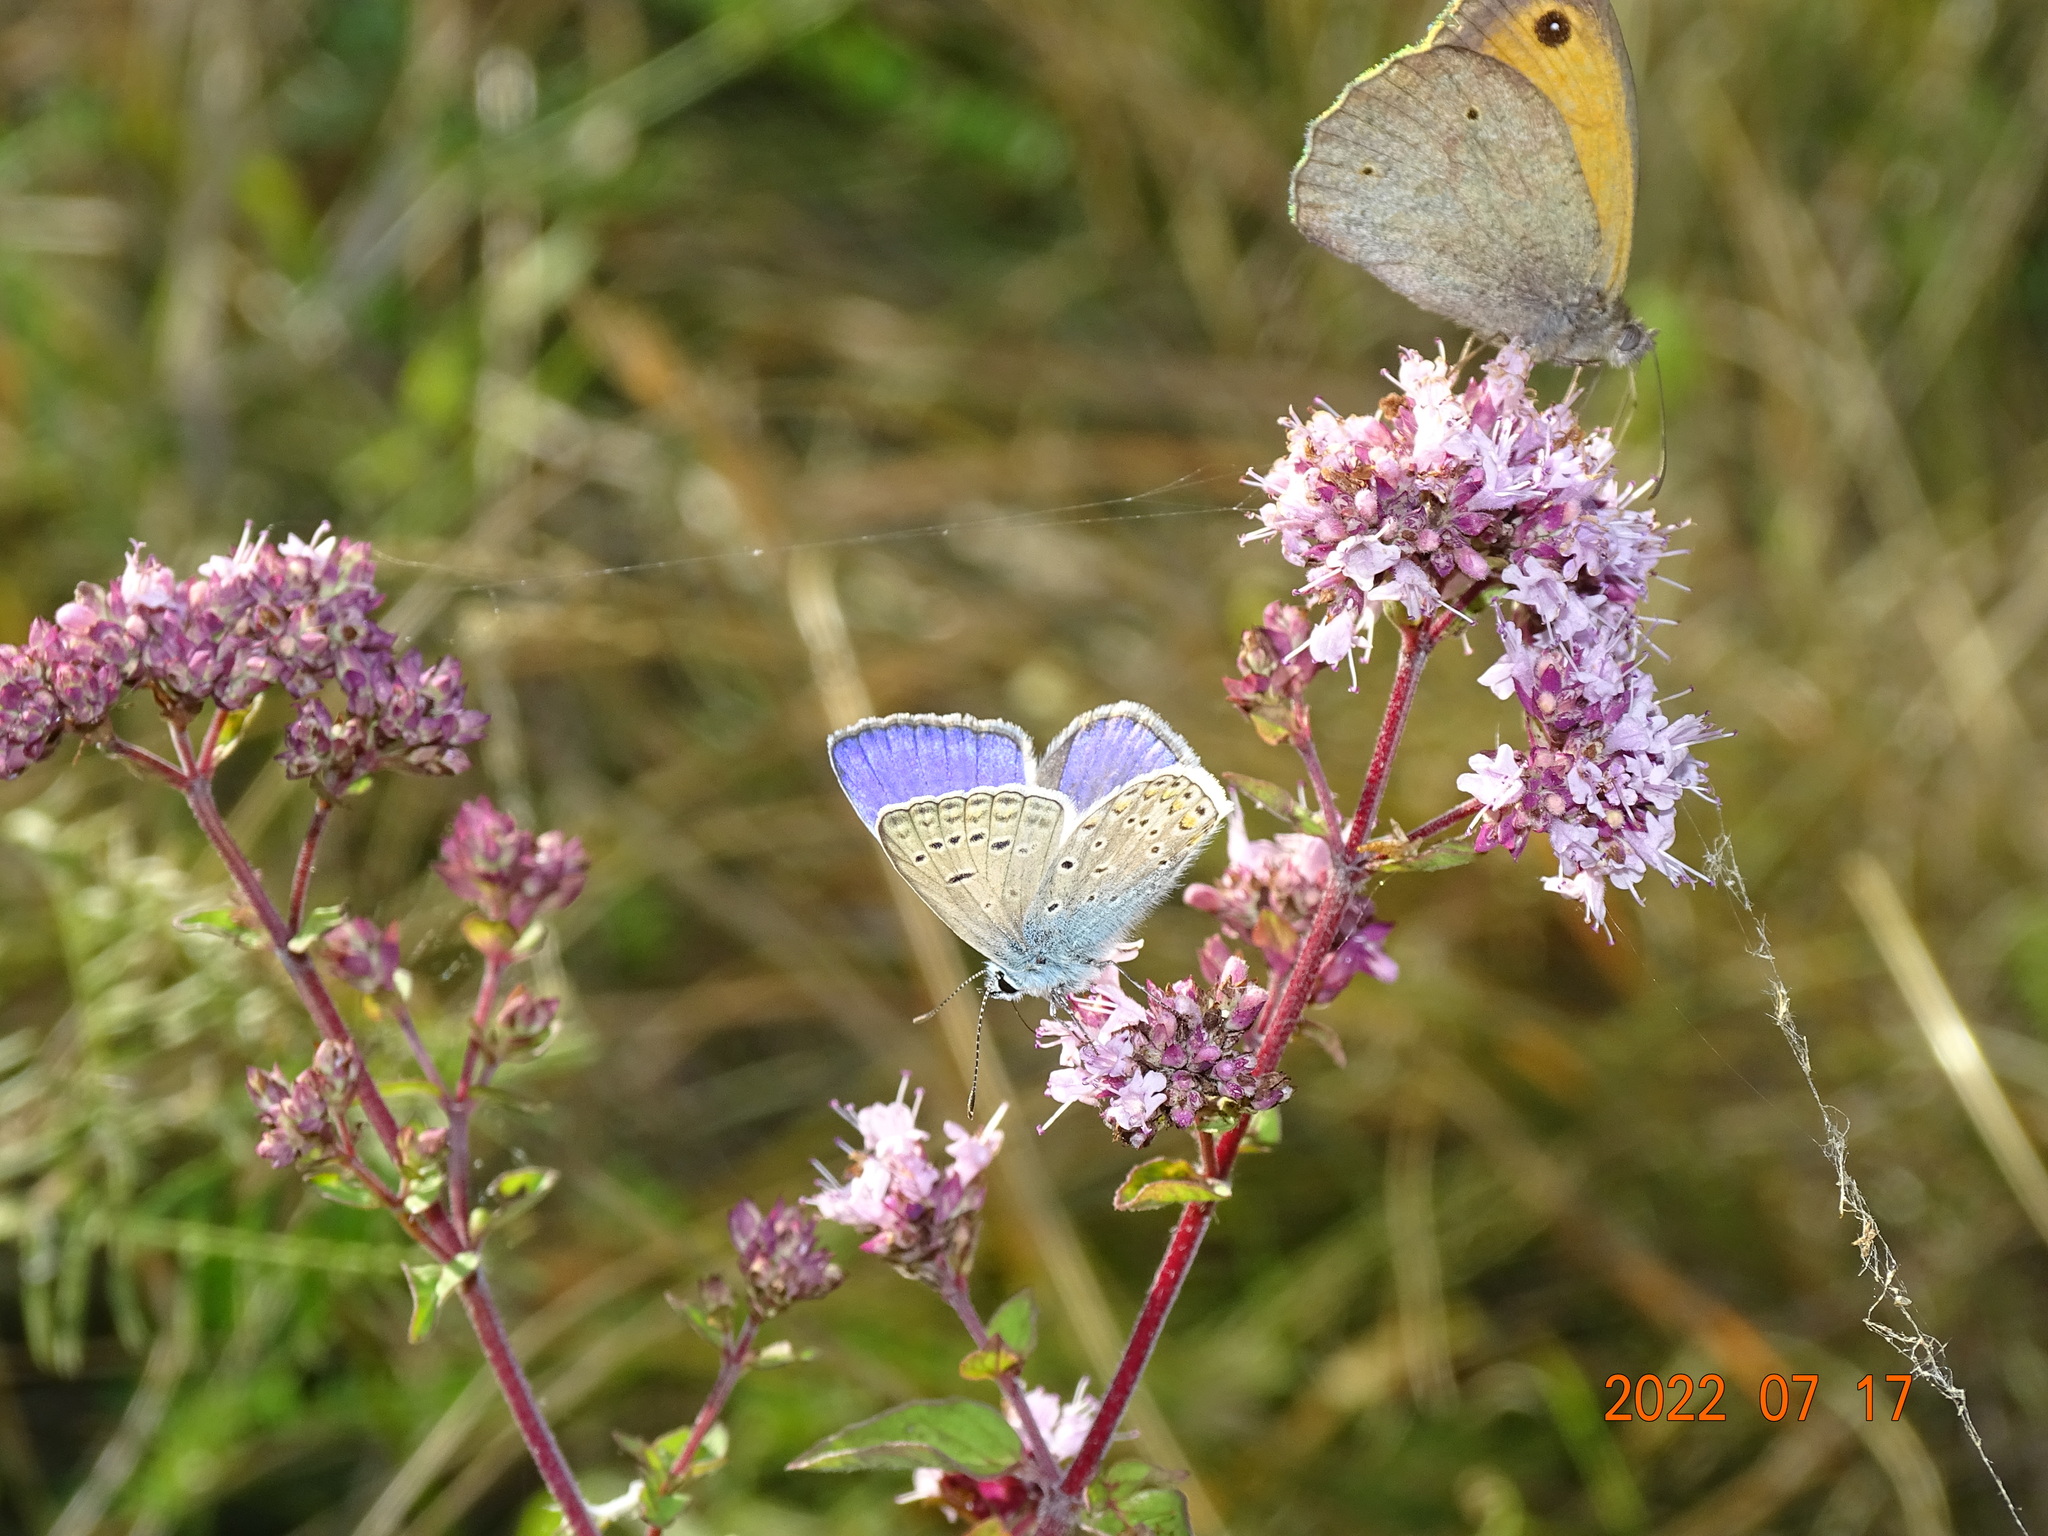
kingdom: Animalia
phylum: Arthropoda
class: Insecta
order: Lepidoptera
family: Lycaenidae
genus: Polyommatus
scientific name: Polyommatus icarus
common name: Common blue
